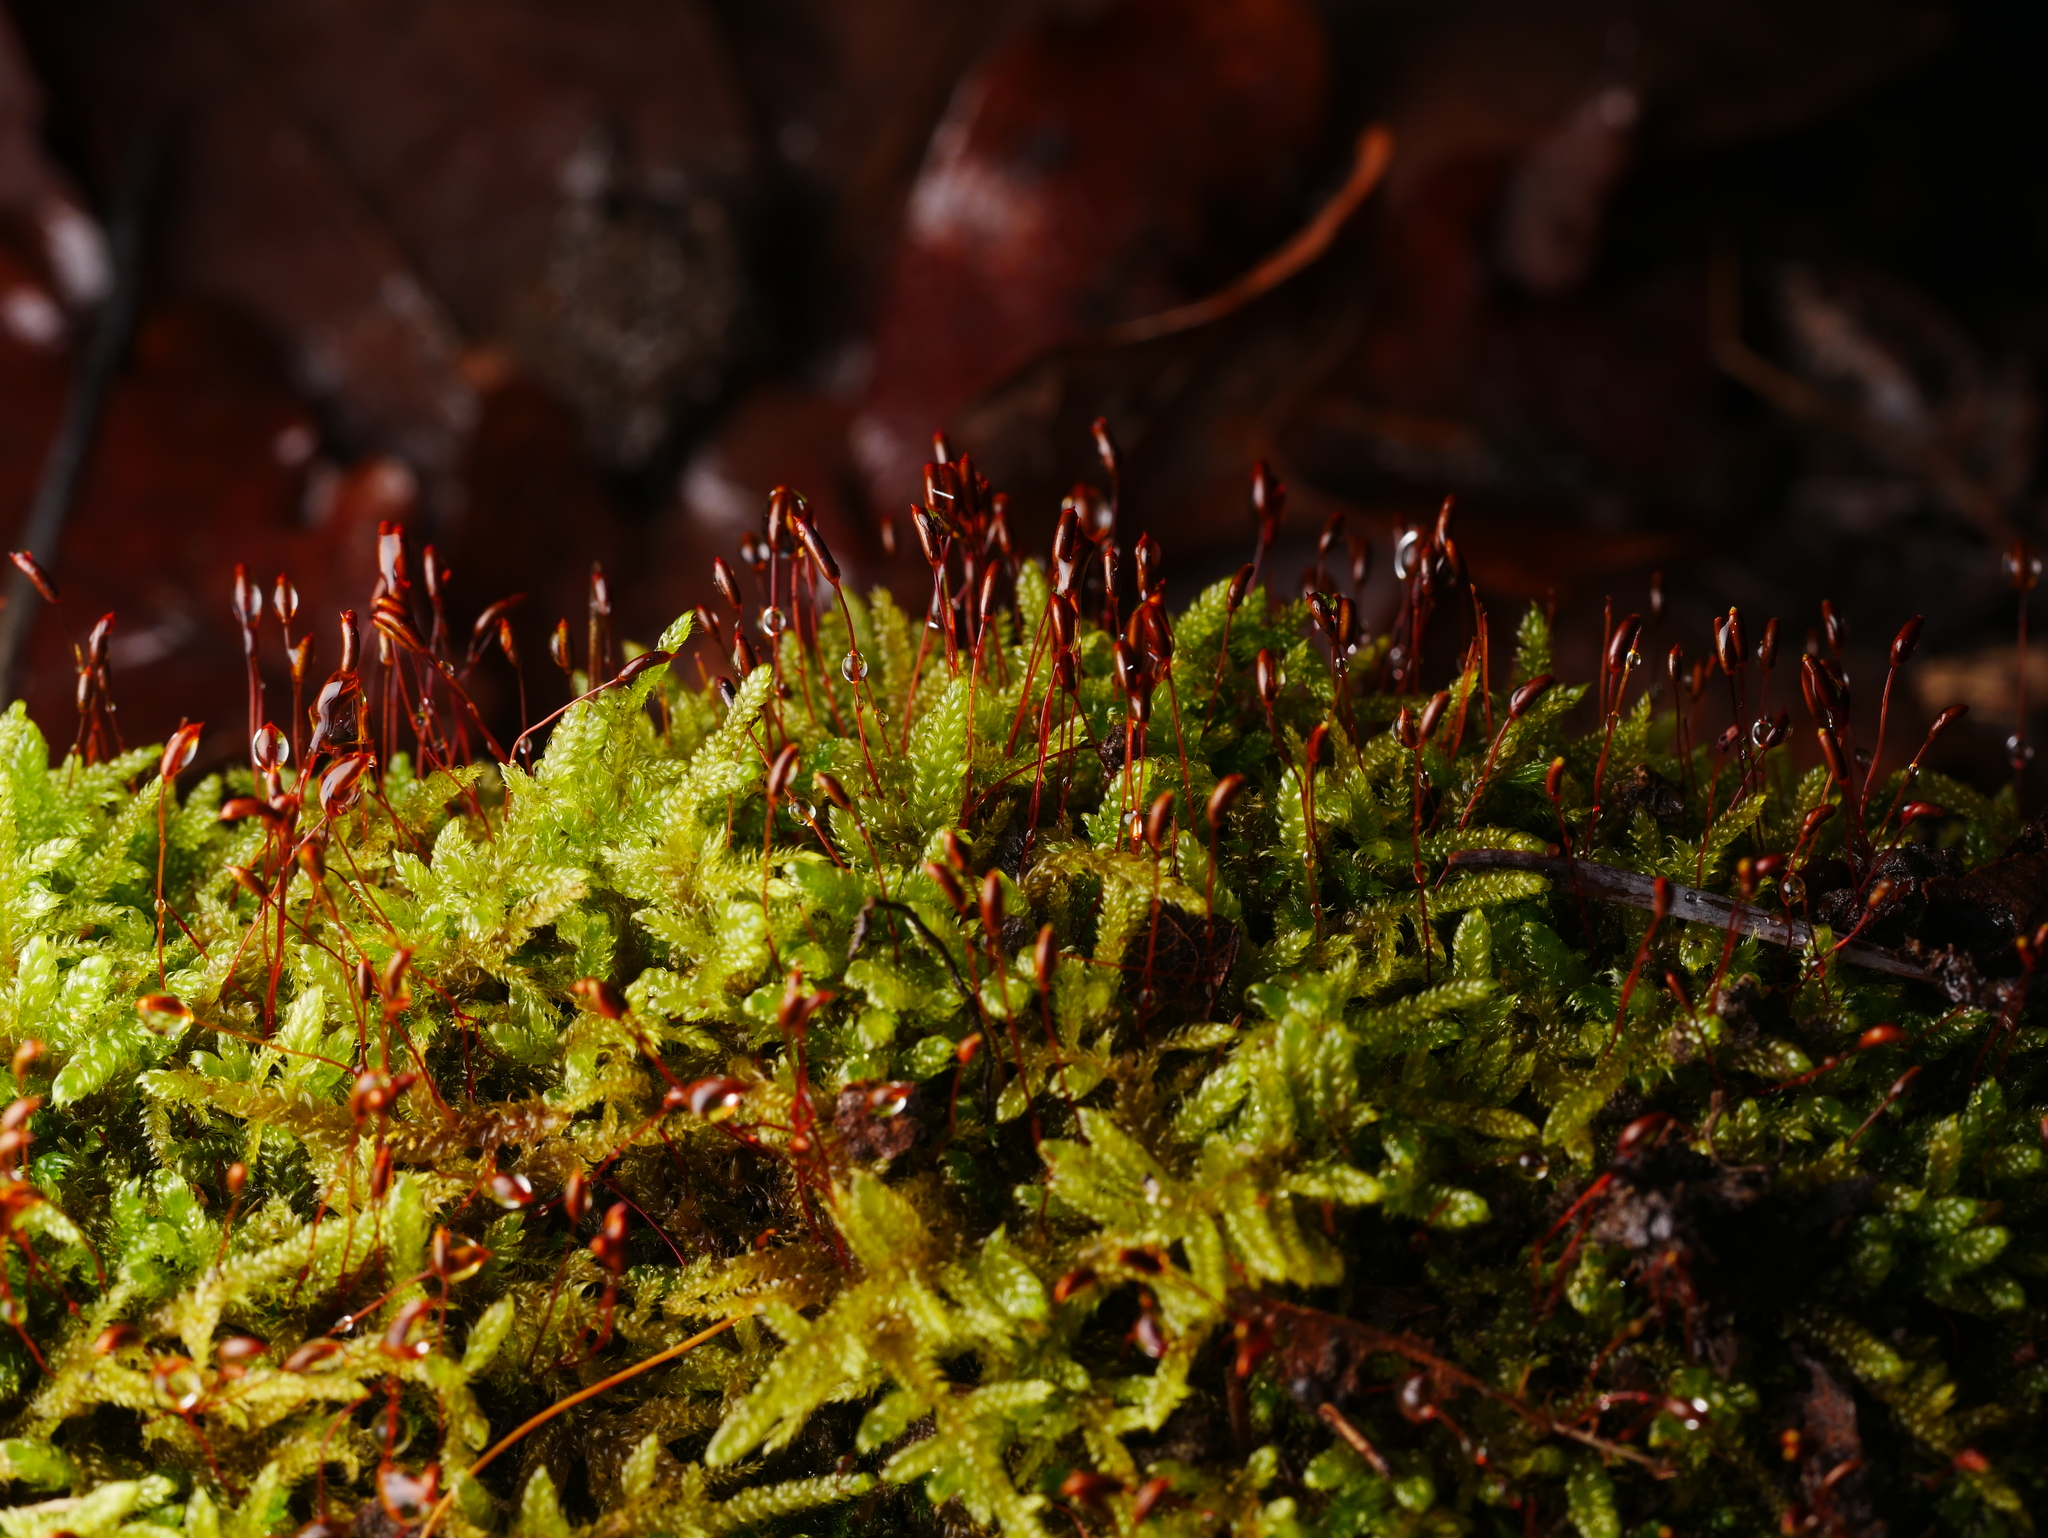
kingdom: Plantae
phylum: Bryophyta
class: Bryopsida
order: Hypnales
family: Hypnaceae
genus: Hypnum
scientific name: Hypnum cupressiforme
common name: Cypress-leaved plait-moss
